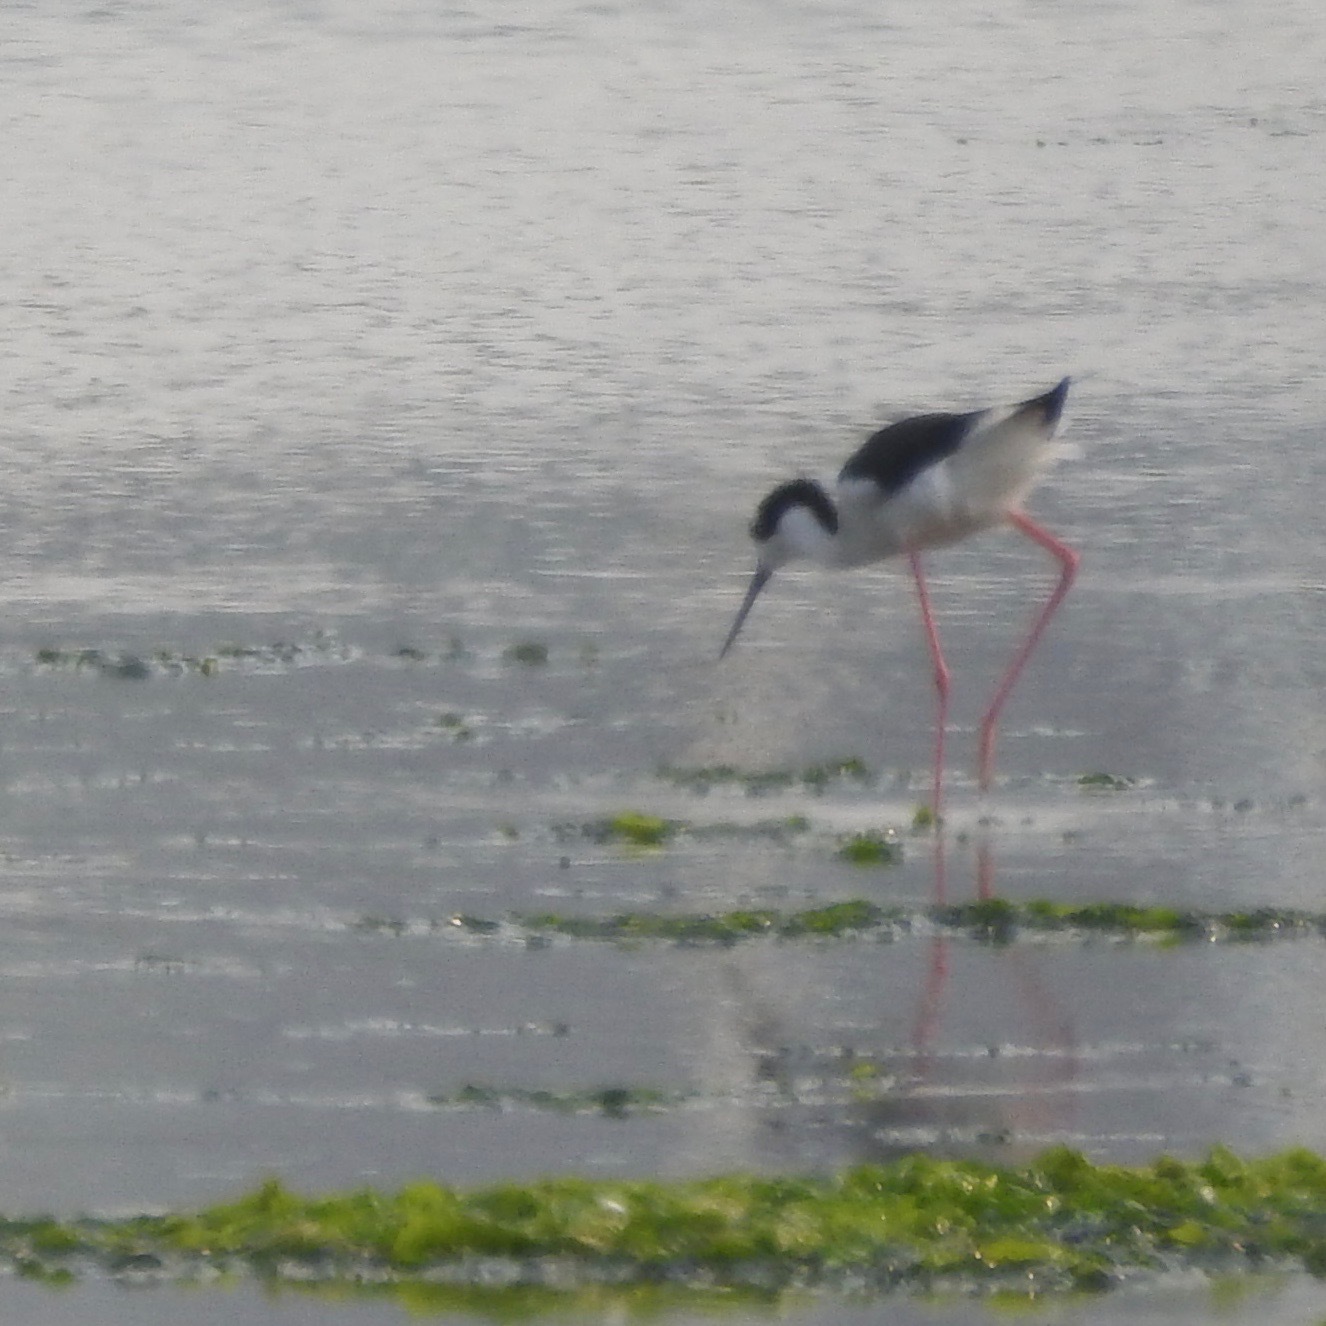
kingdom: Animalia
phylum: Chordata
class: Aves
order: Charadriiformes
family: Recurvirostridae
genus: Himantopus
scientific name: Himantopus mexicanus
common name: Black-necked stilt
